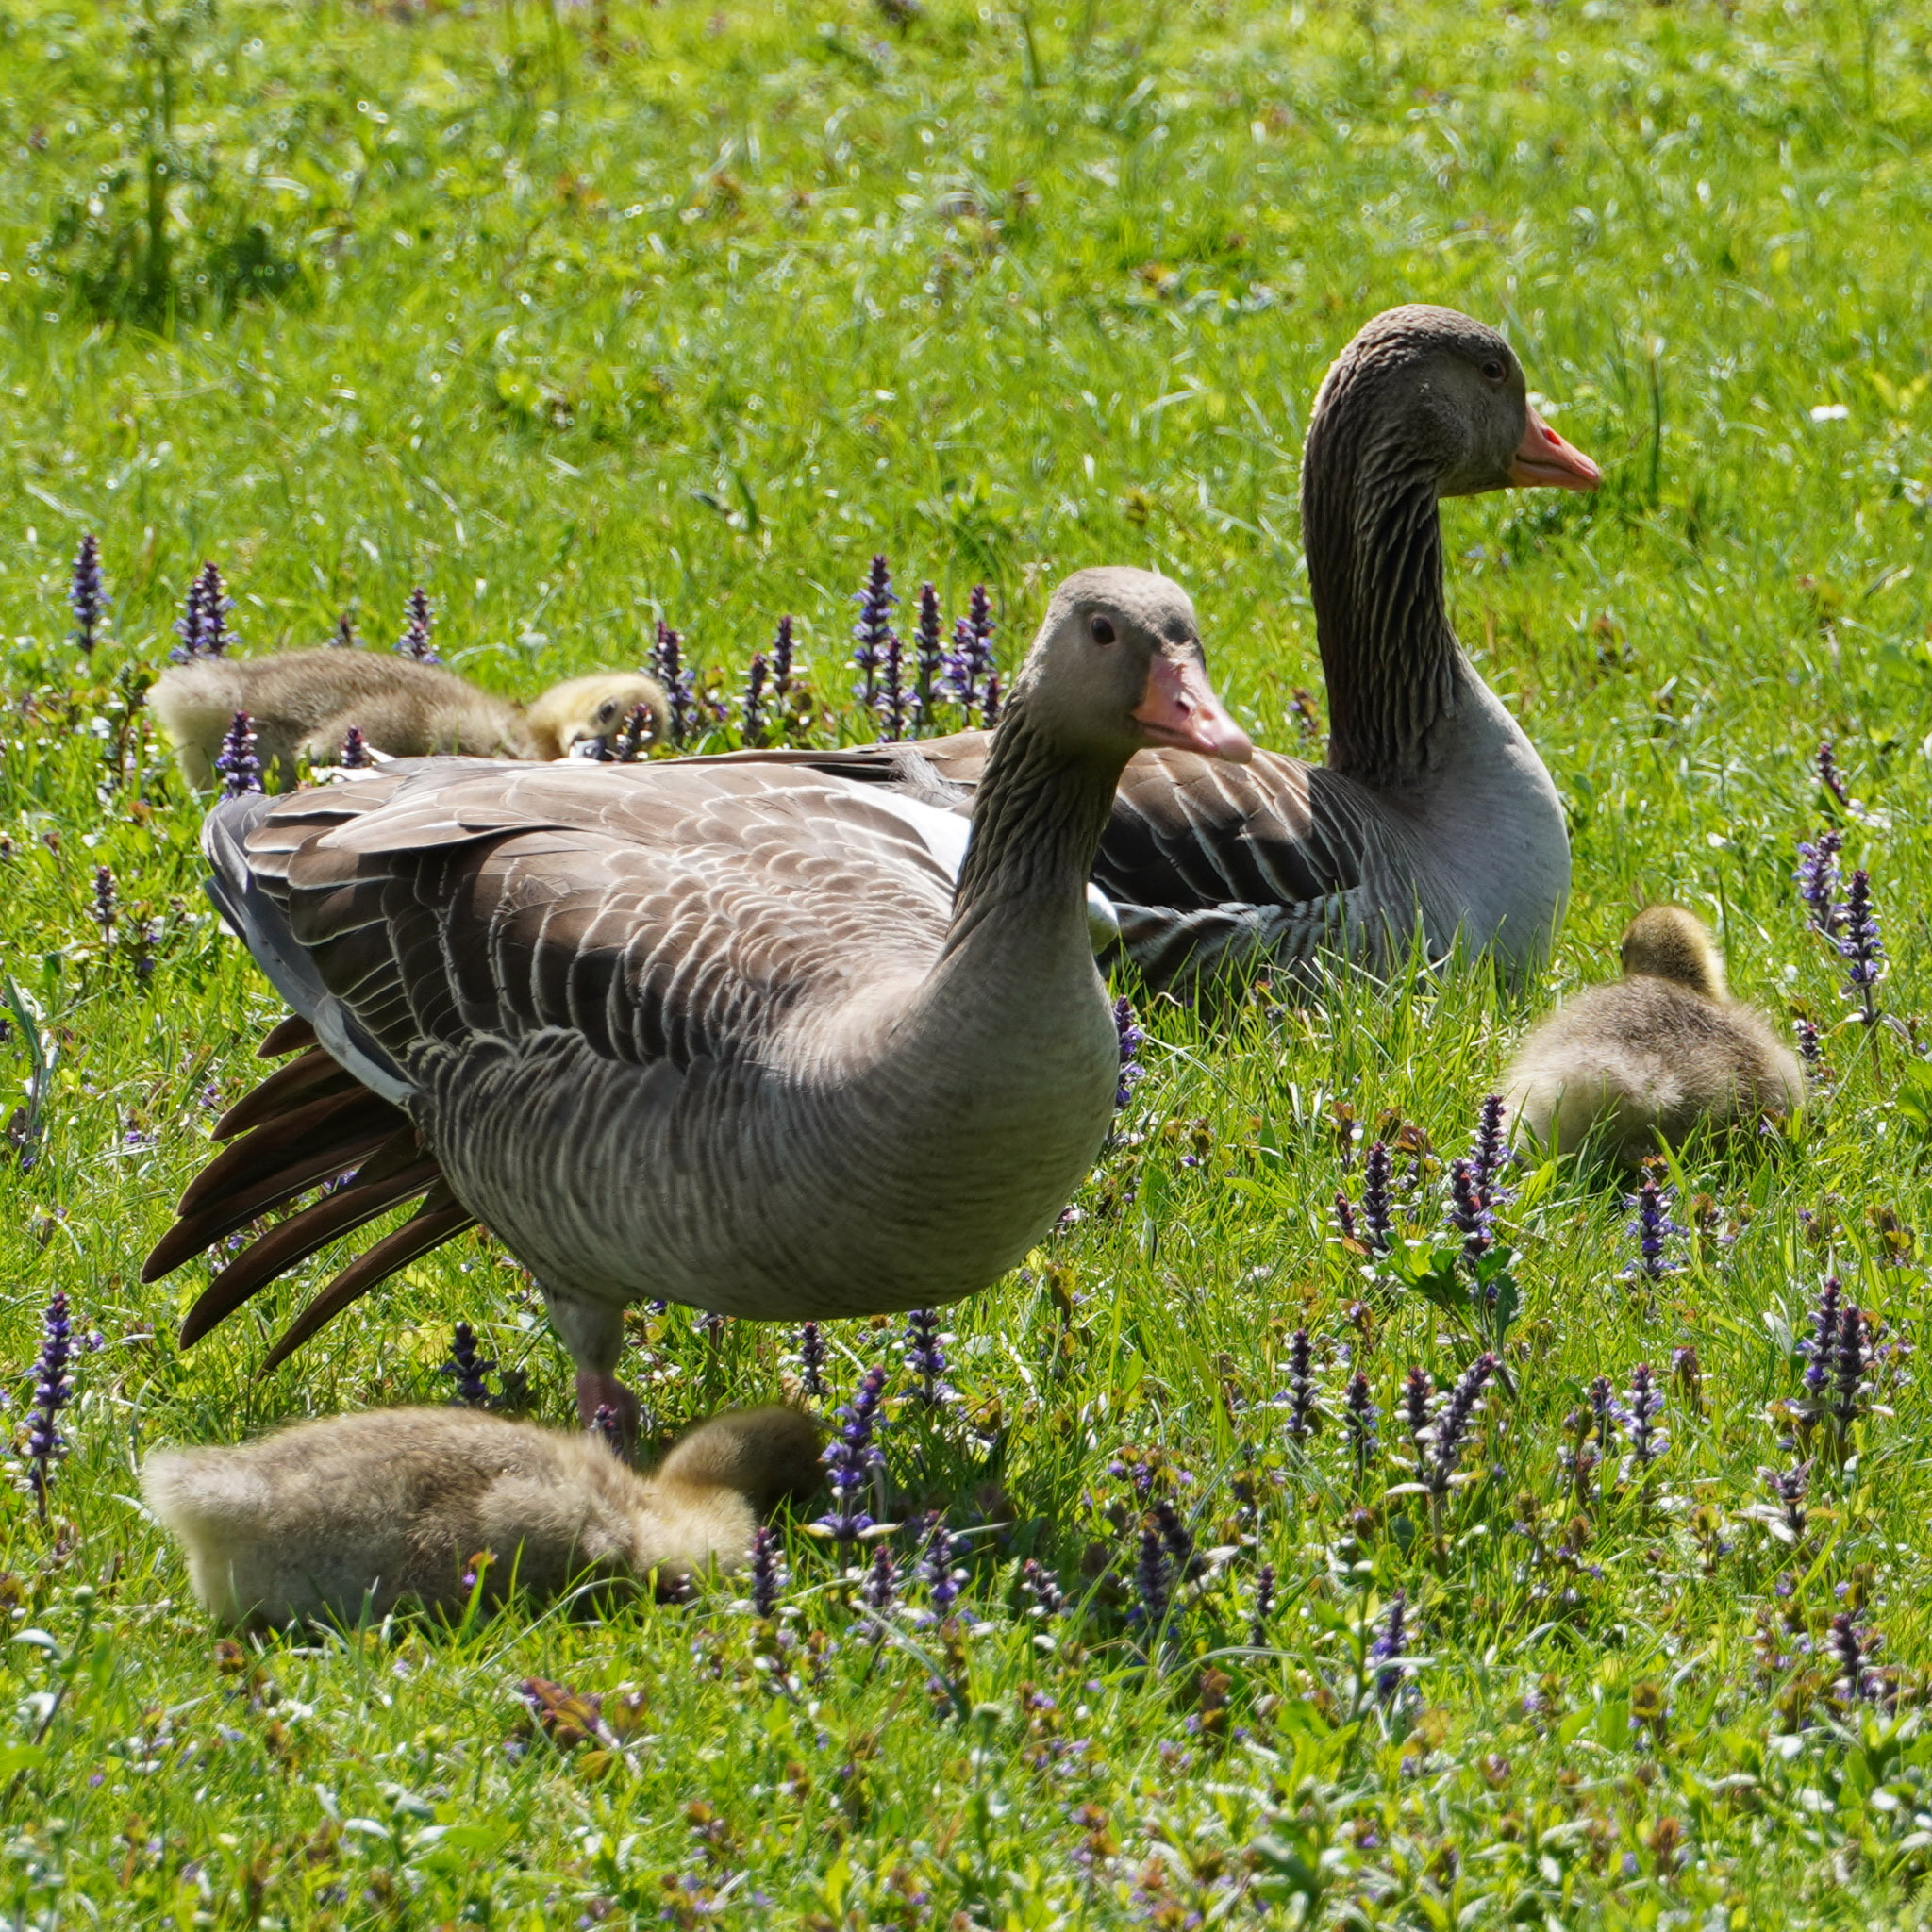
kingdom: Animalia
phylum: Chordata
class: Aves
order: Anseriformes
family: Anatidae
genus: Anser
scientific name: Anser anser
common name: Greylag goose
